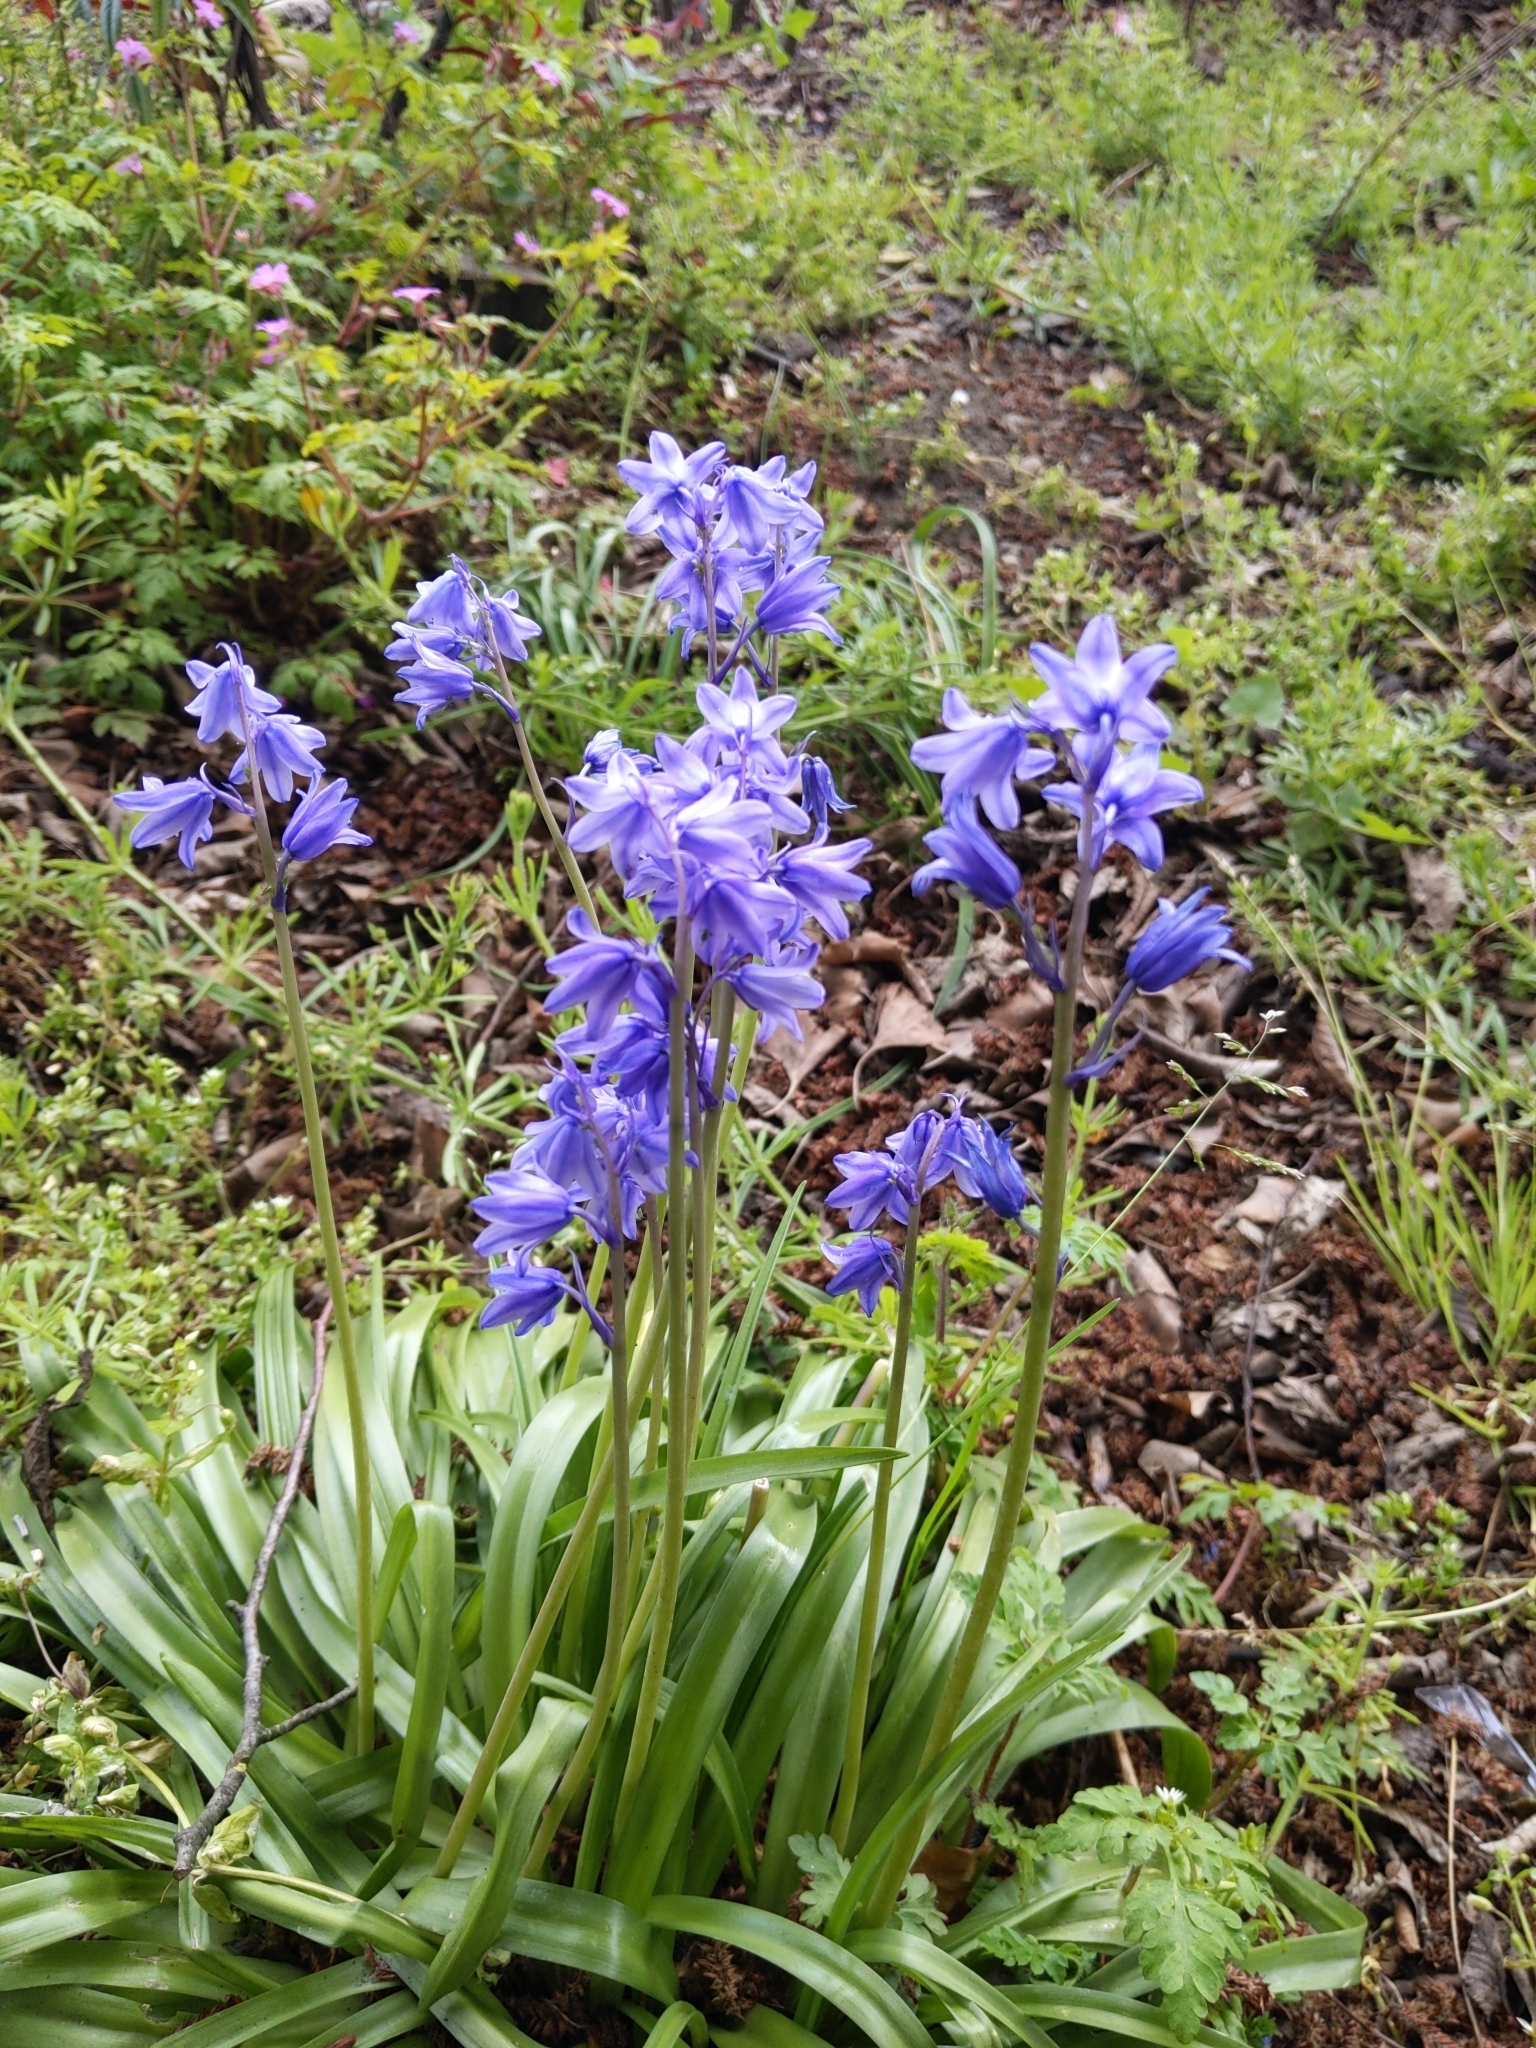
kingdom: Plantae
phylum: Tracheophyta
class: Liliopsida
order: Asparagales
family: Asparagaceae
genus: Hyacinthoides
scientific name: Hyacinthoides hispanica
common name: Spanish bluebell
